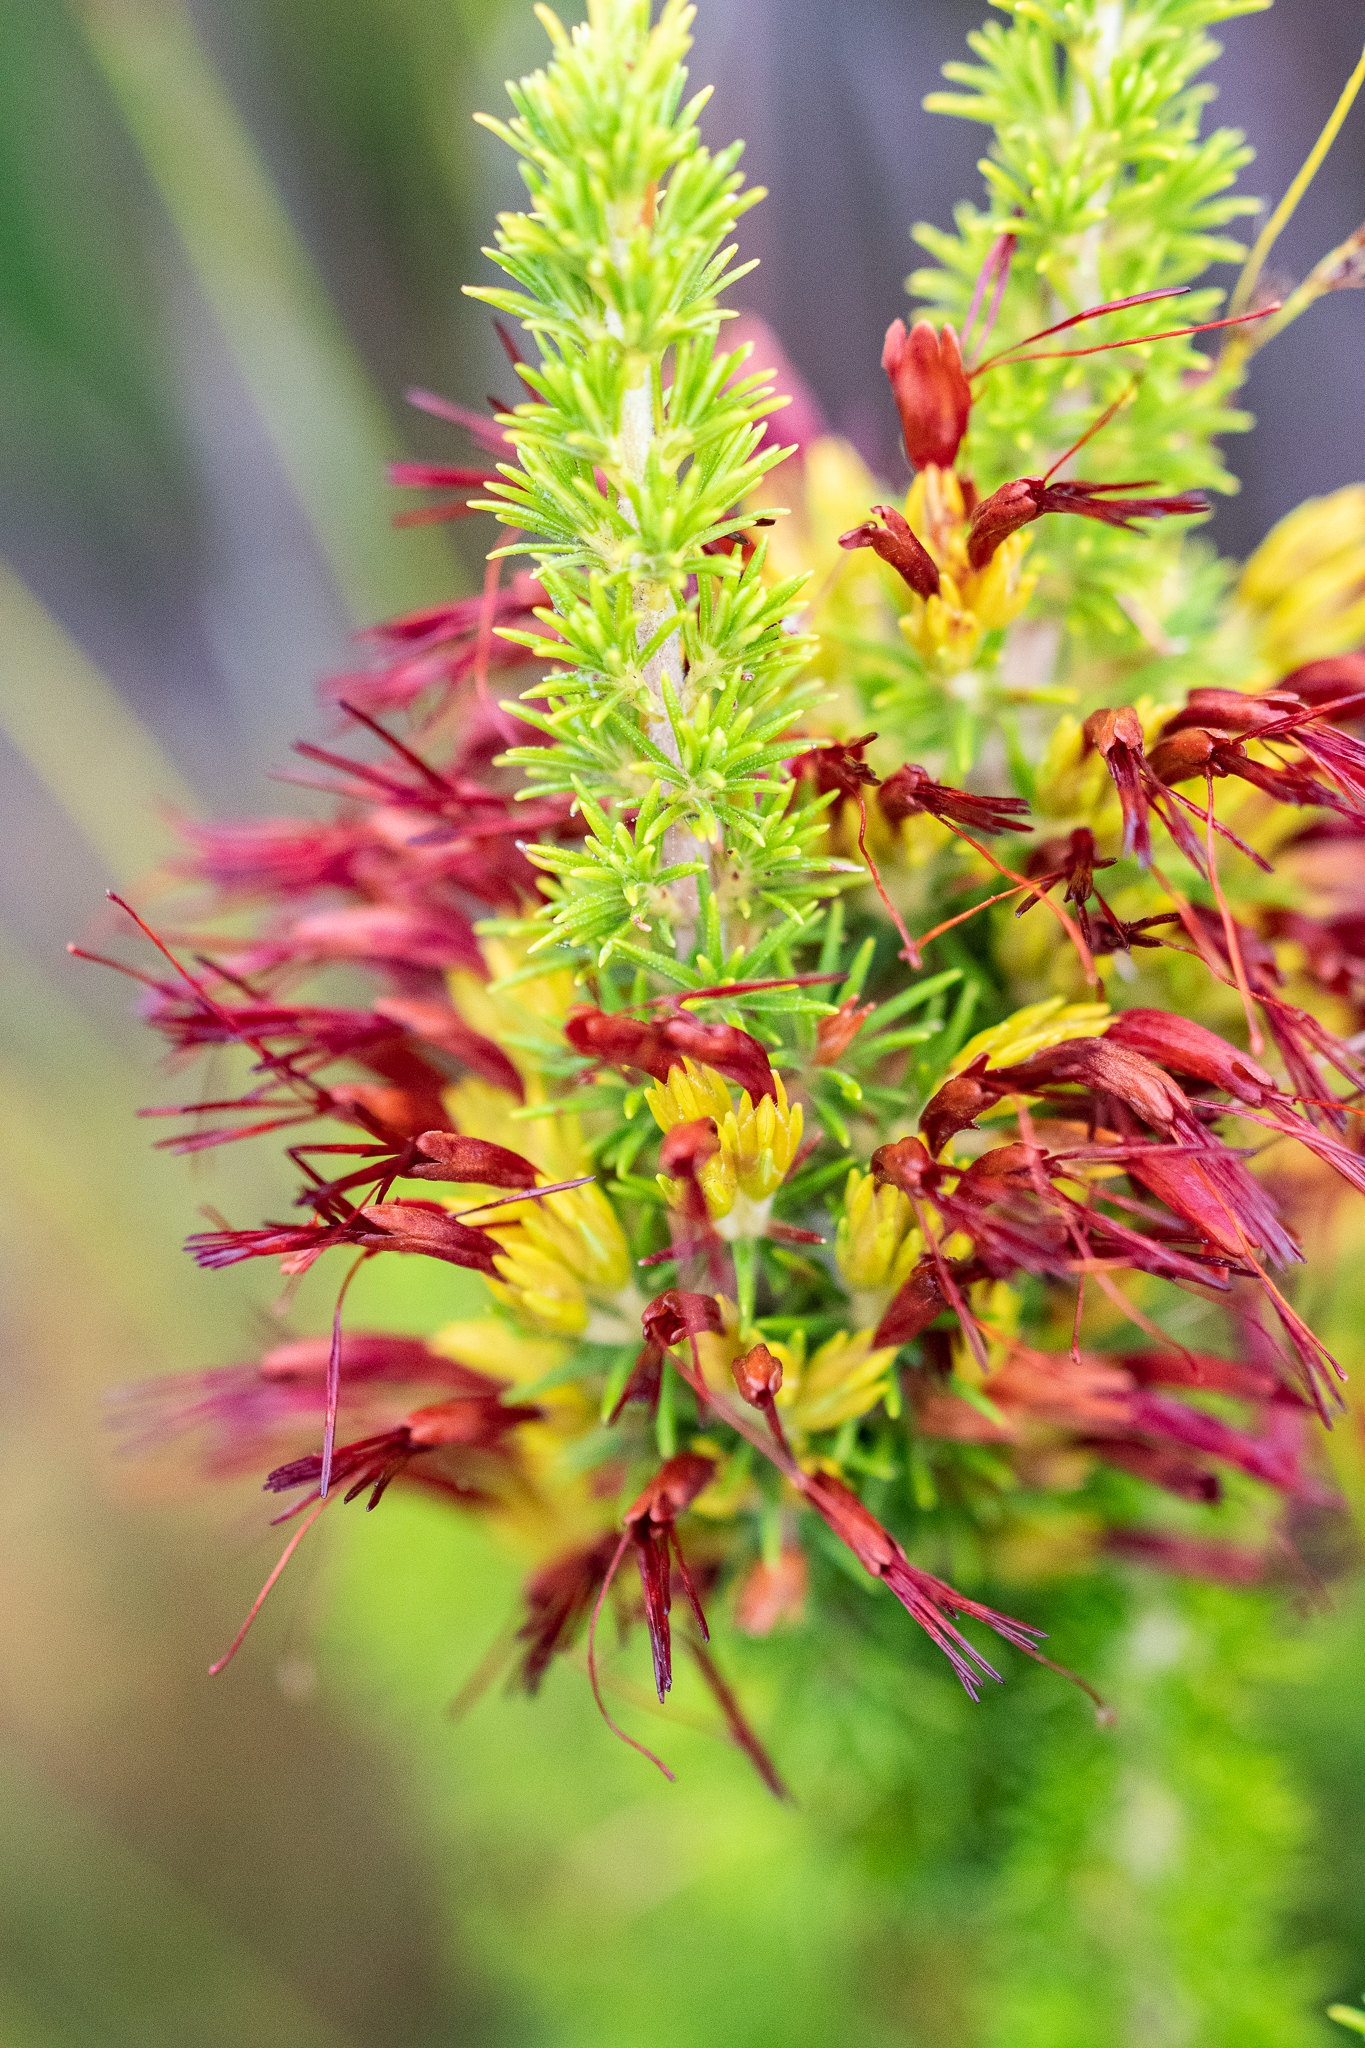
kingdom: Plantae
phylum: Tracheophyta
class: Magnoliopsida
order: Ericales
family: Ericaceae
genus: Erica
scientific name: Erica coccinea
